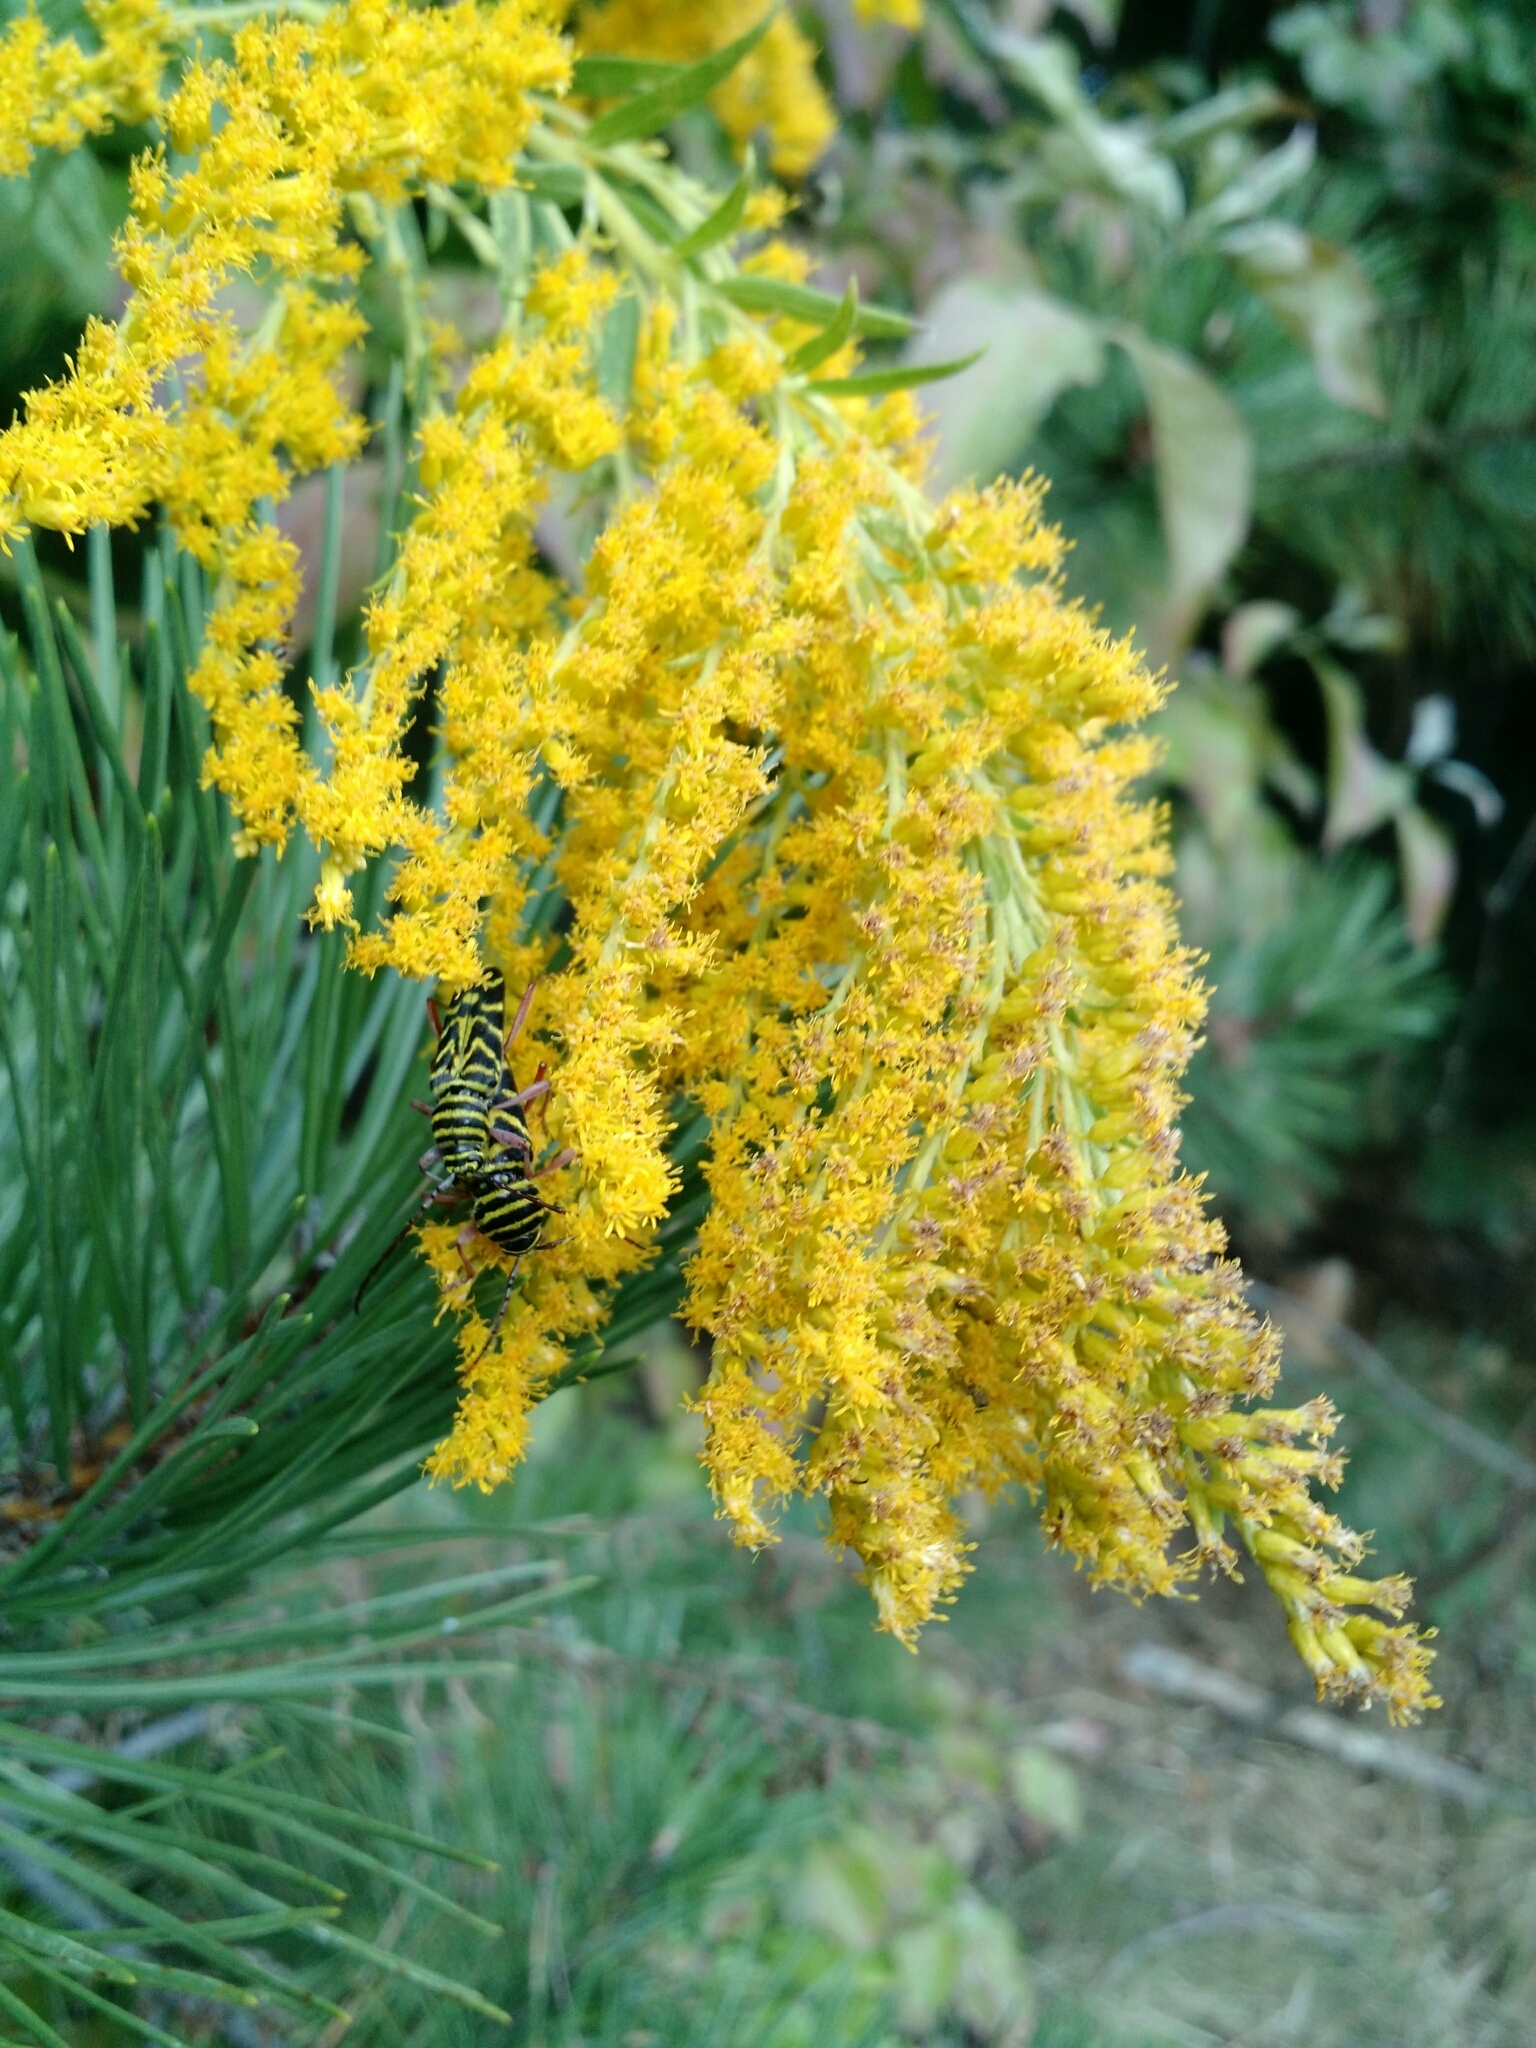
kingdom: Animalia
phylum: Arthropoda
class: Insecta
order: Coleoptera
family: Cerambycidae
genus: Megacyllene
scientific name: Megacyllene robiniae
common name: Locust borer
